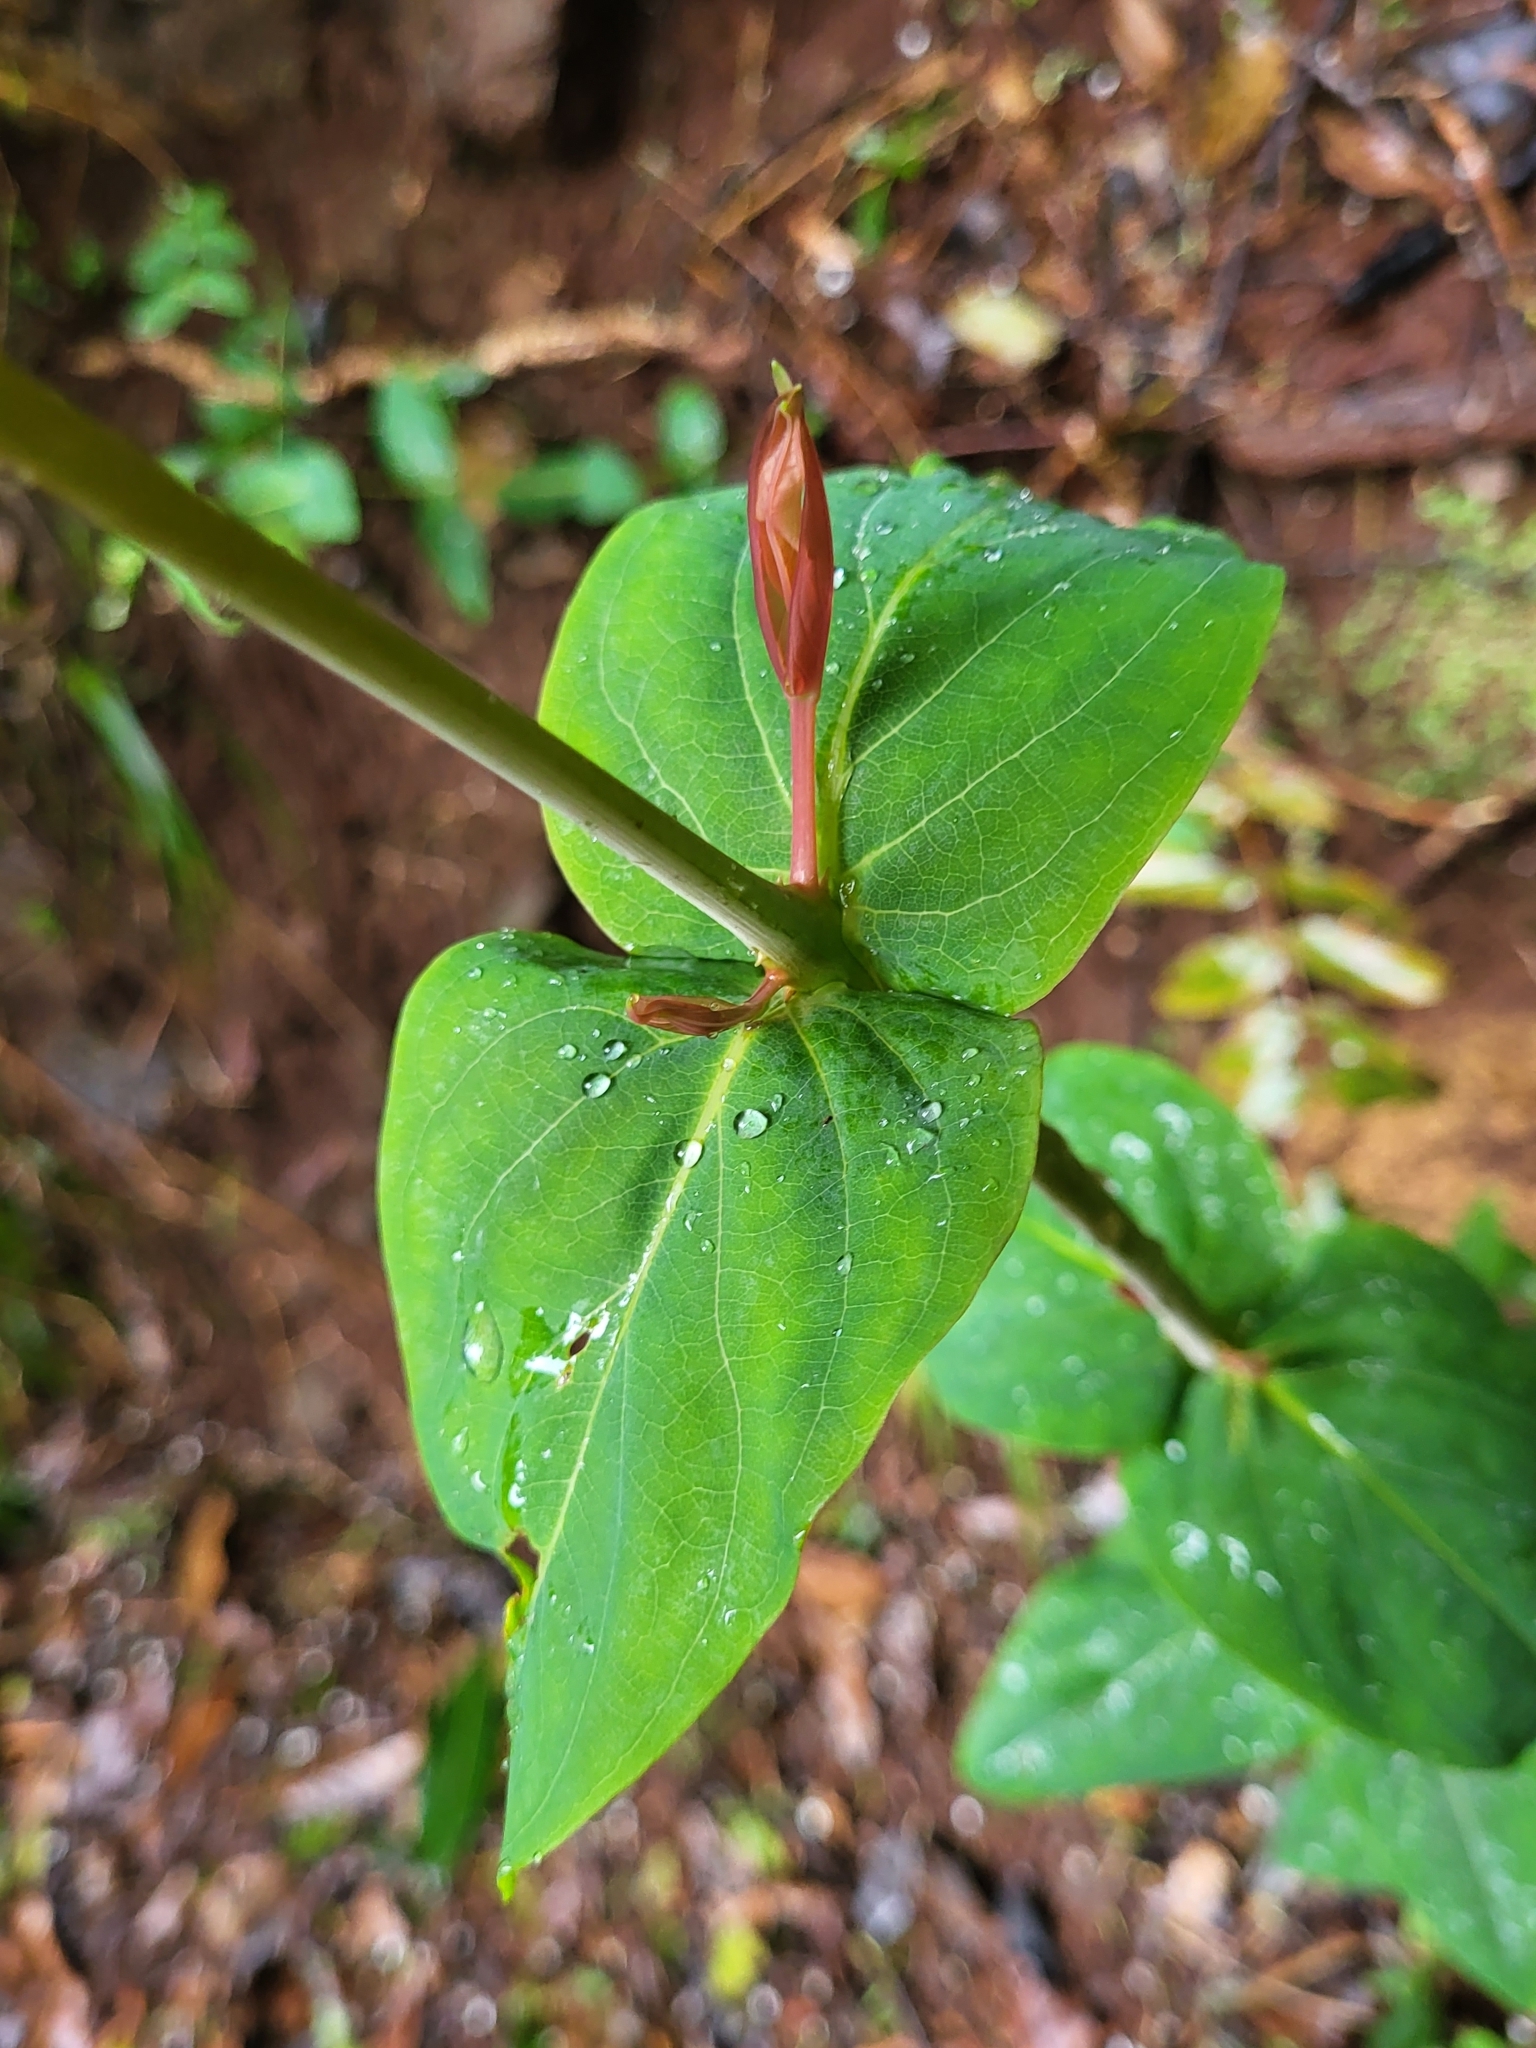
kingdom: Plantae
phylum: Tracheophyta
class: Magnoliopsida
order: Malpighiales
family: Hypericaceae
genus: Hypericum
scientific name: Hypericum grandifolium
